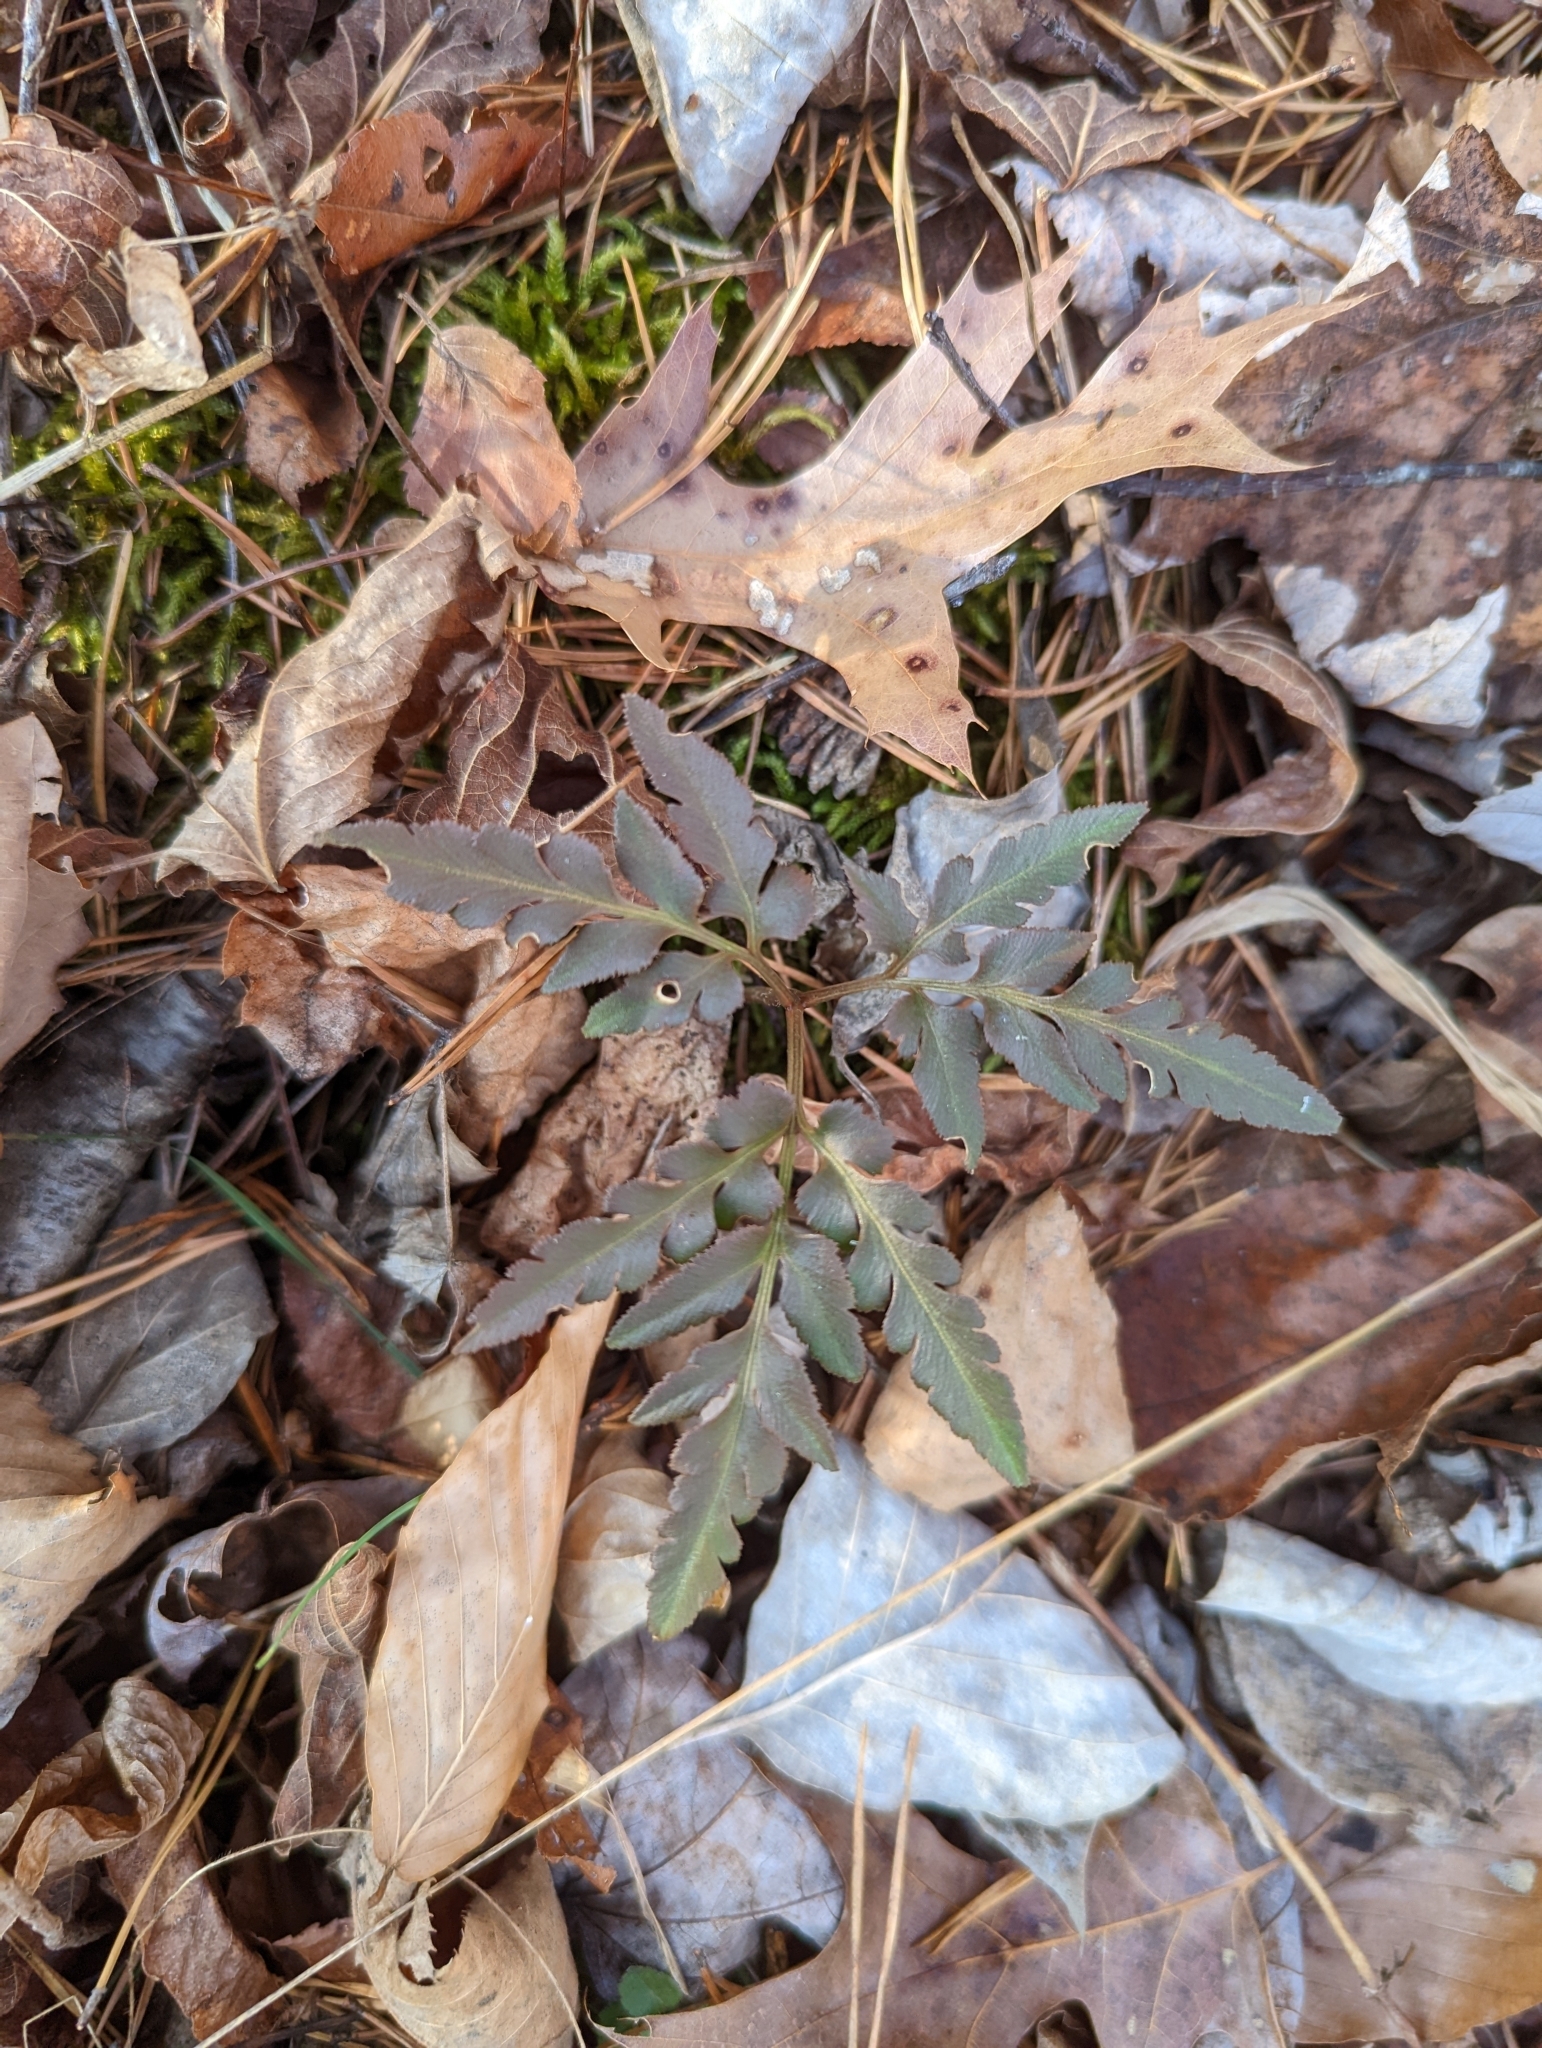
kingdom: Plantae
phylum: Tracheophyta
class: Polypodiopsida
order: Ophioglossales
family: Ophioglossaceae
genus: Sceptridium
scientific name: Sceptridium dissectum
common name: Cut-leaved grapefern
